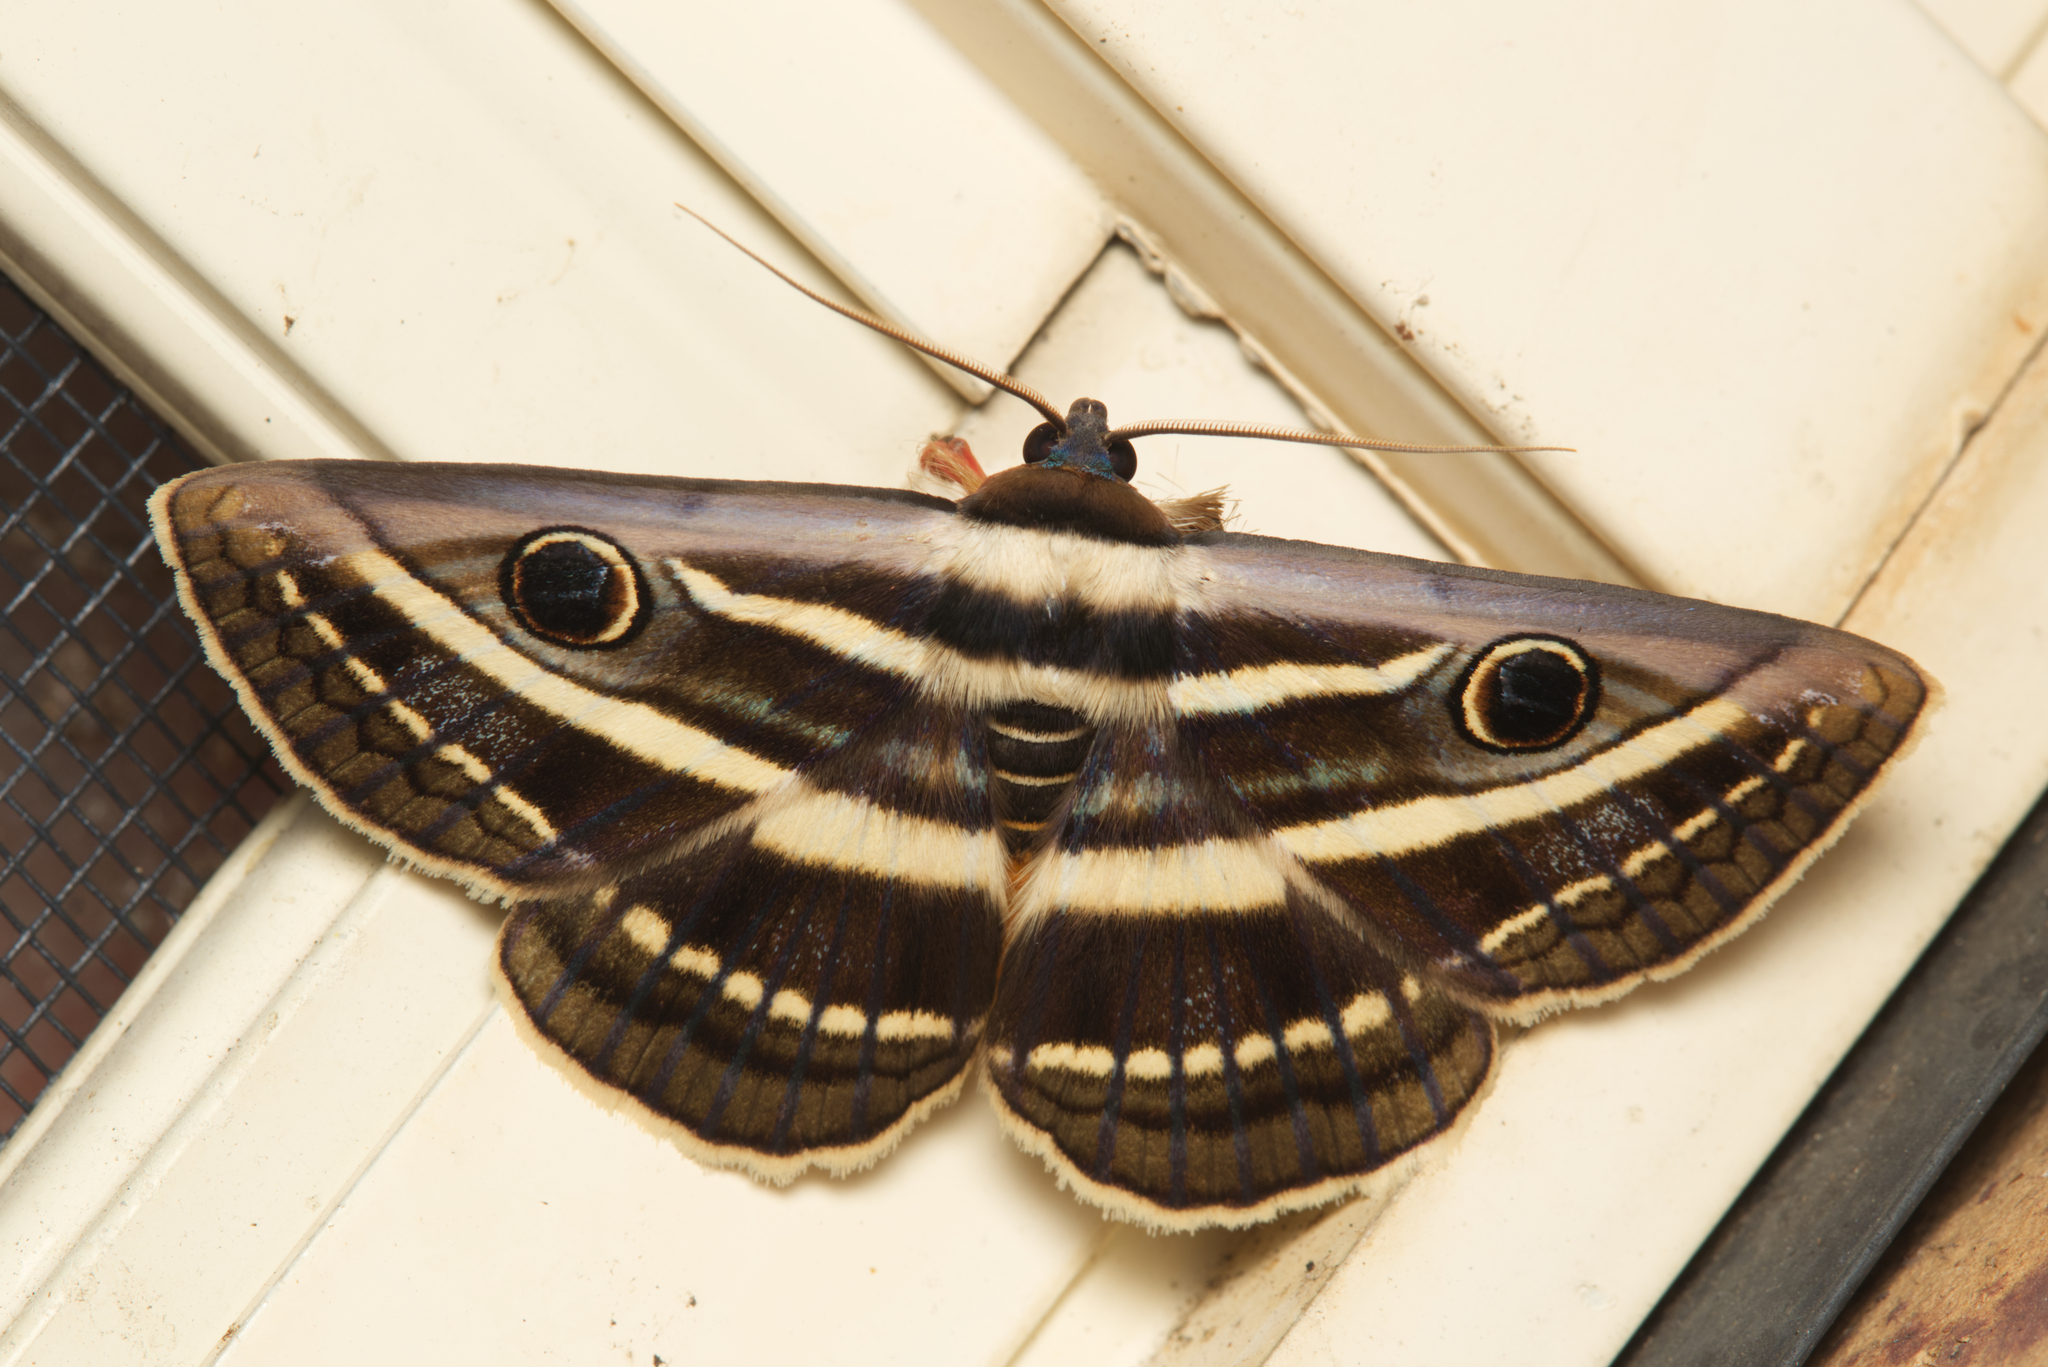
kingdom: Animalia
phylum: Arthropoda
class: Insecta
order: Lepidoptera
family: Erebidae
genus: Donuca
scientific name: Donuca orbigera
